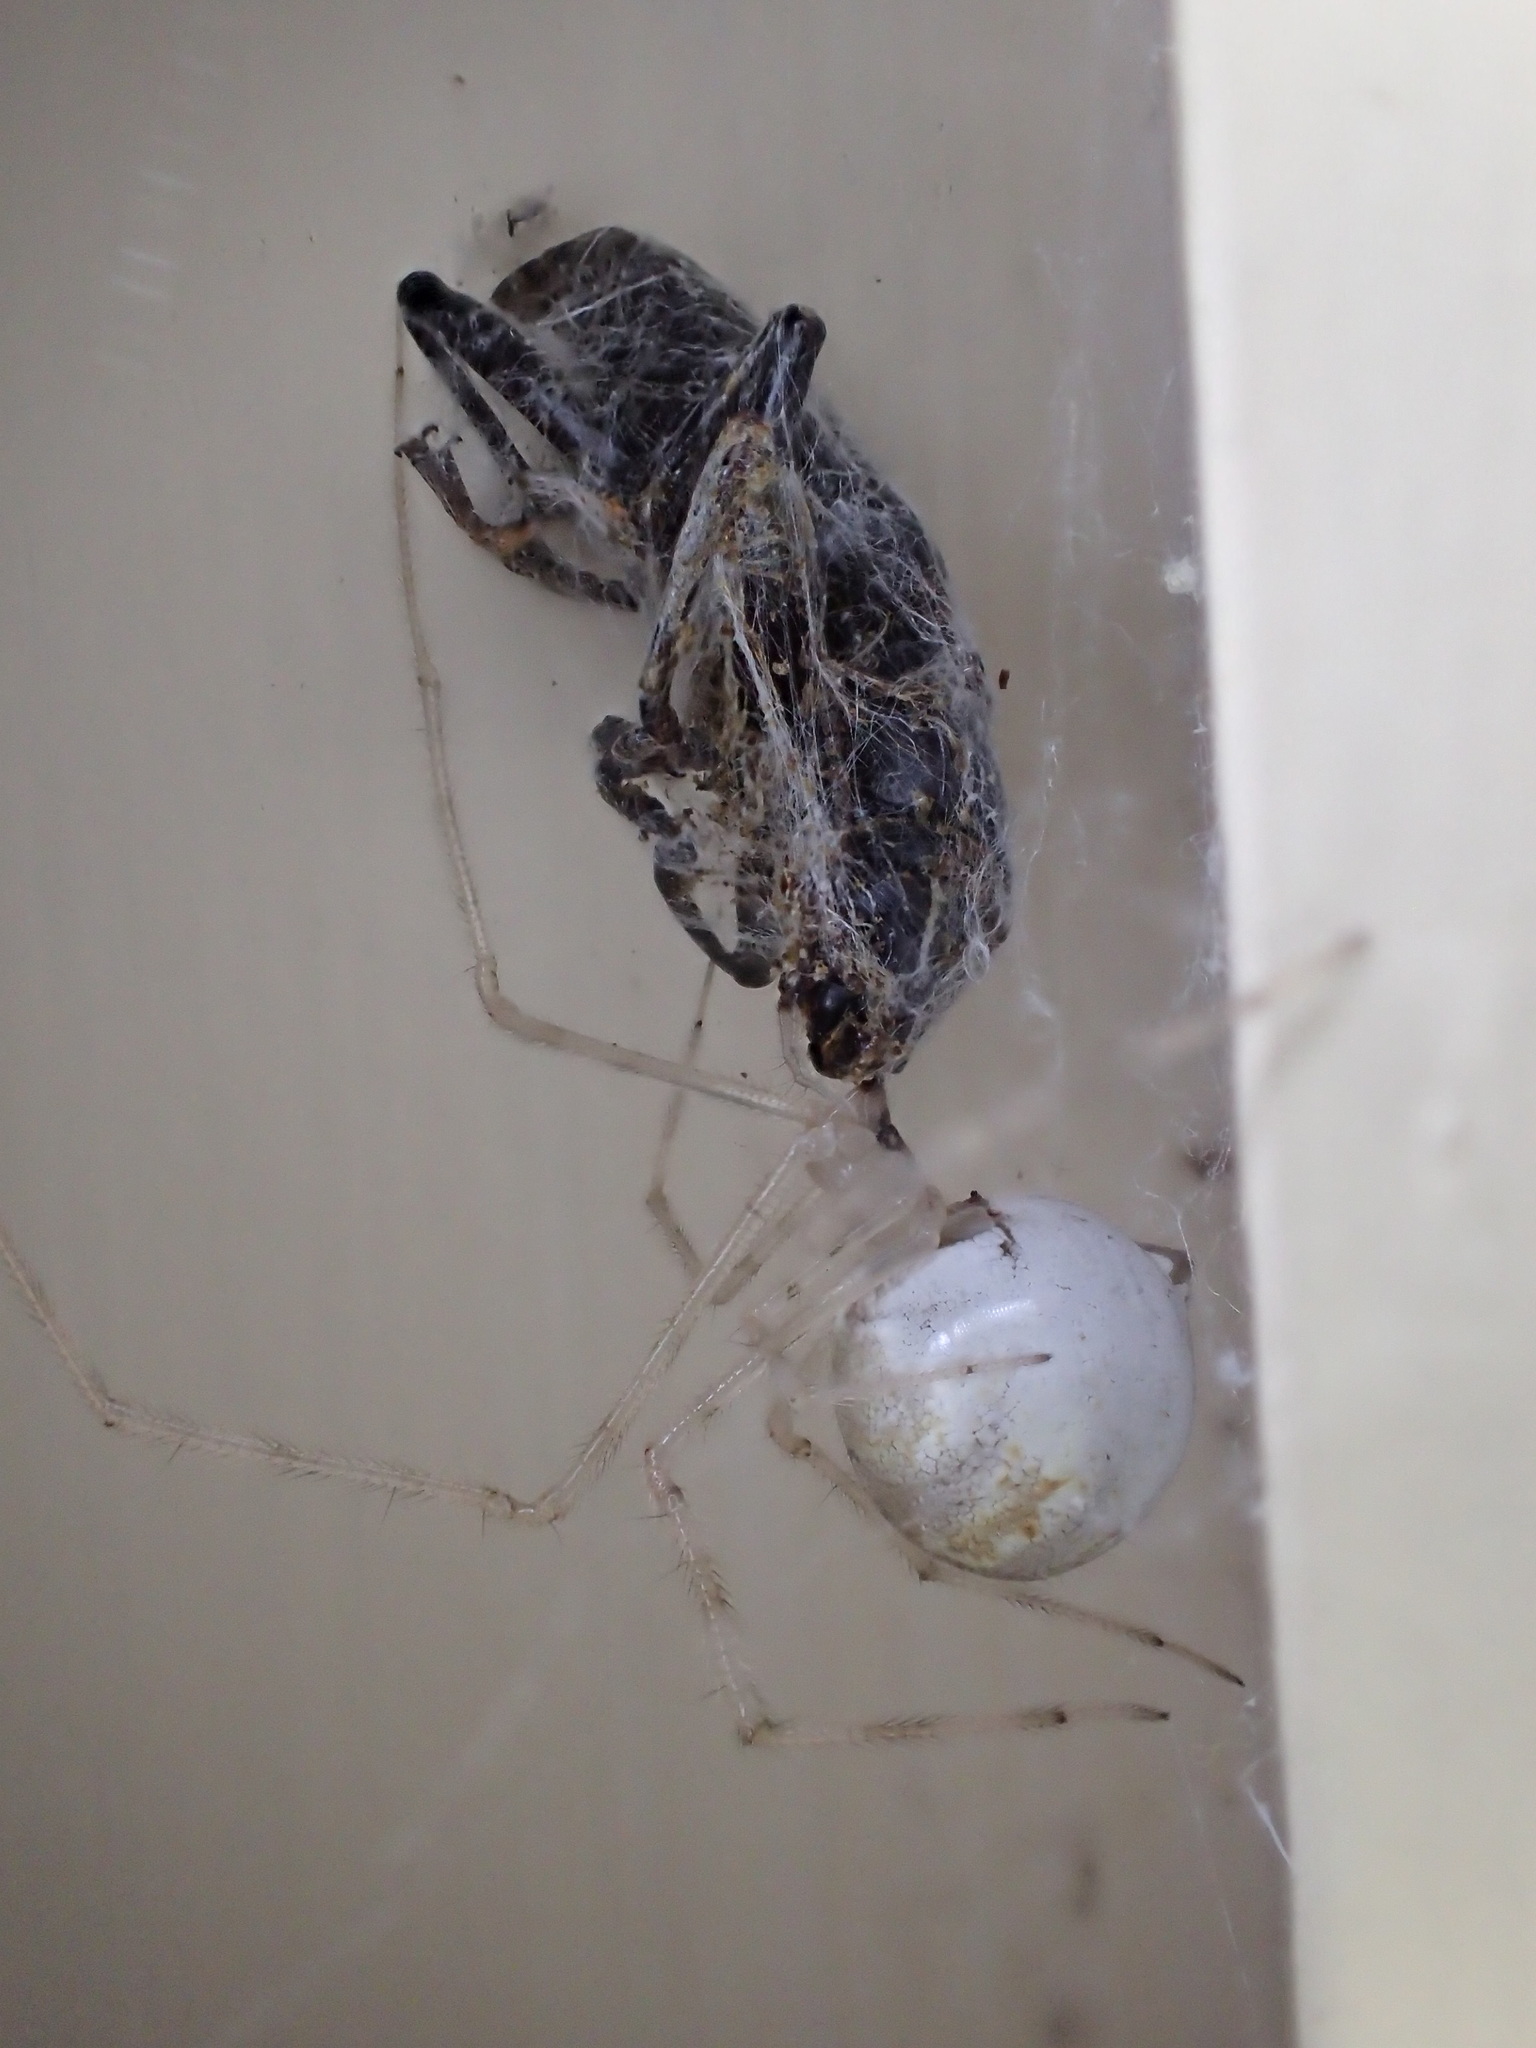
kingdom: Animalia
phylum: Arthropoda
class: Arachnida
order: Araneae
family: Theridiidae
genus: Cryptachaea
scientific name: Cryptachaea gigantipes
